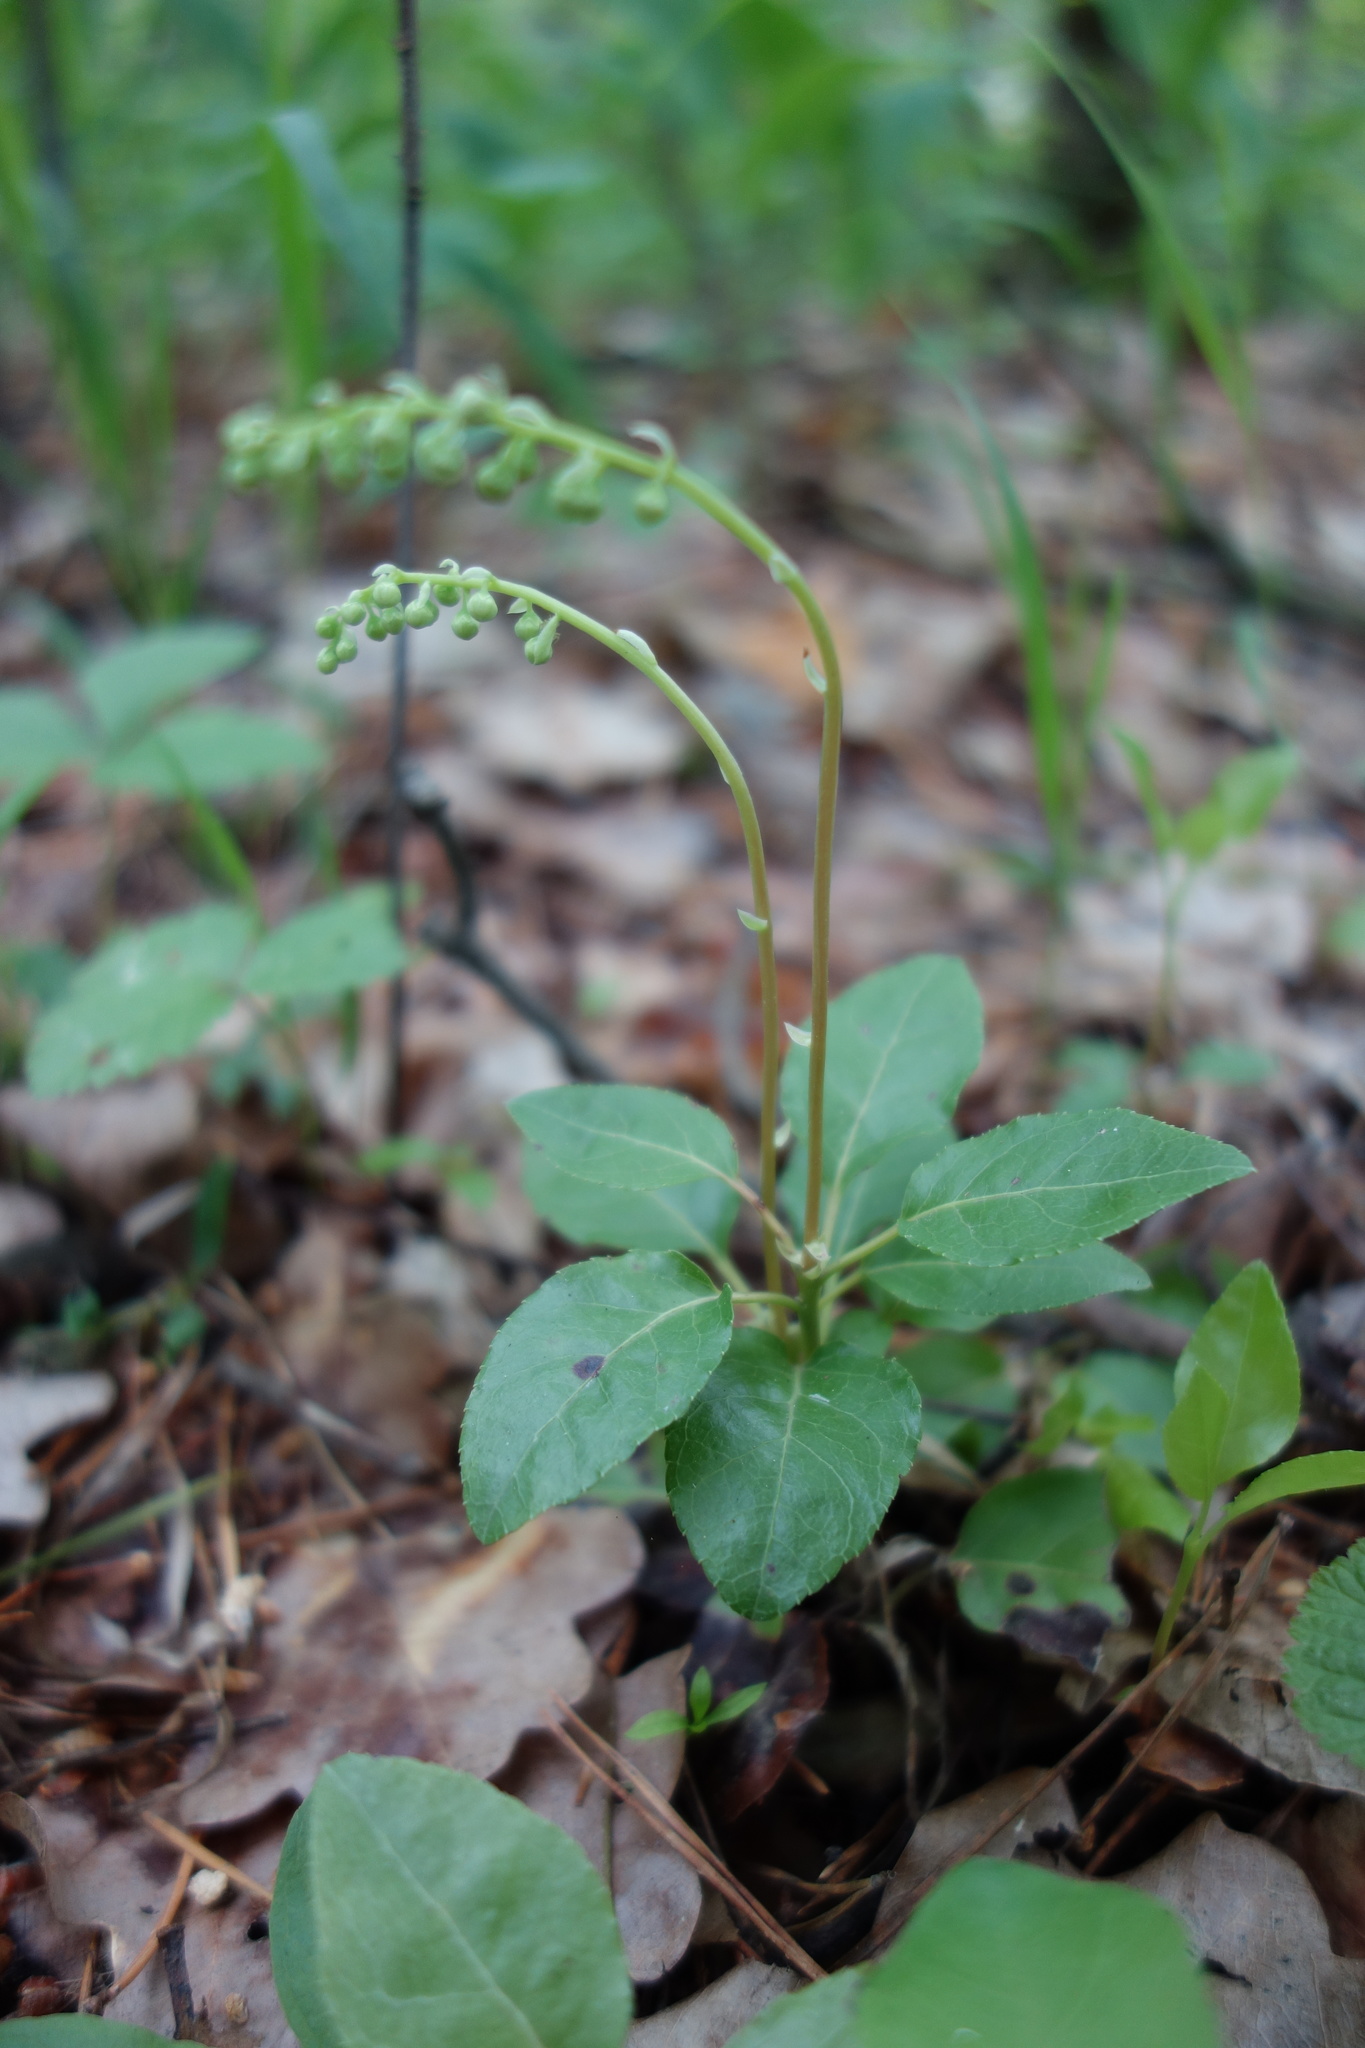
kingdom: Plantae
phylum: Tracheophyta
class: Magnoliopsida
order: Ericales
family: Ericaceae
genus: Orthilia
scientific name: Orthilia secunda
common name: One-sided orthilia
